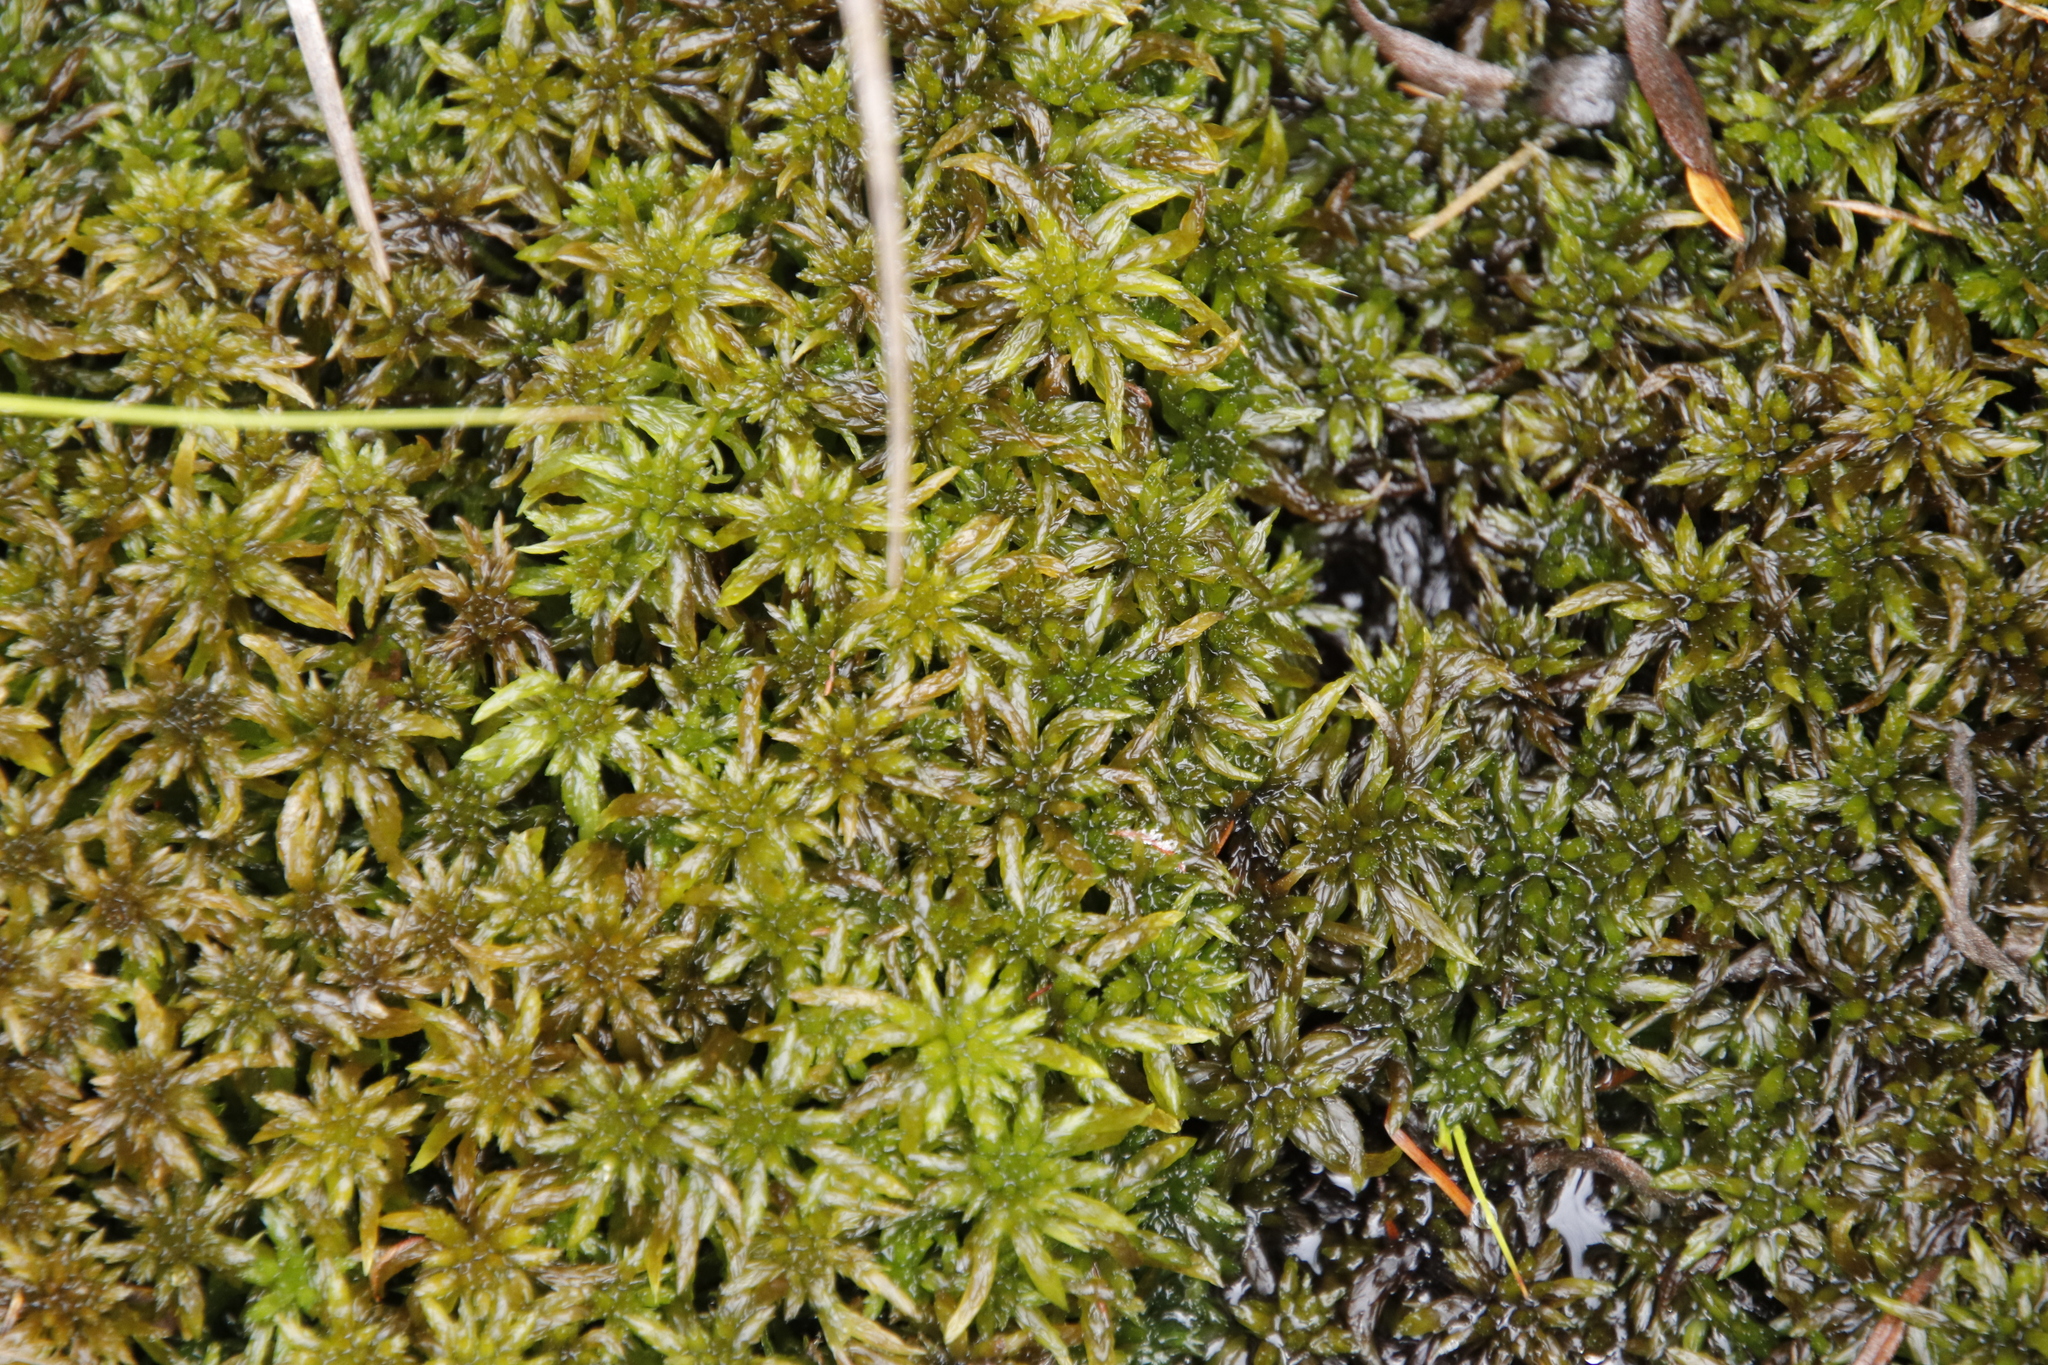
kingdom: Plantae
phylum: Bryophyta
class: Sphagnopsida
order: Sphagnales
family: Sphagnaceae
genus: Sphagnum
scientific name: Sphagnum truncatum
